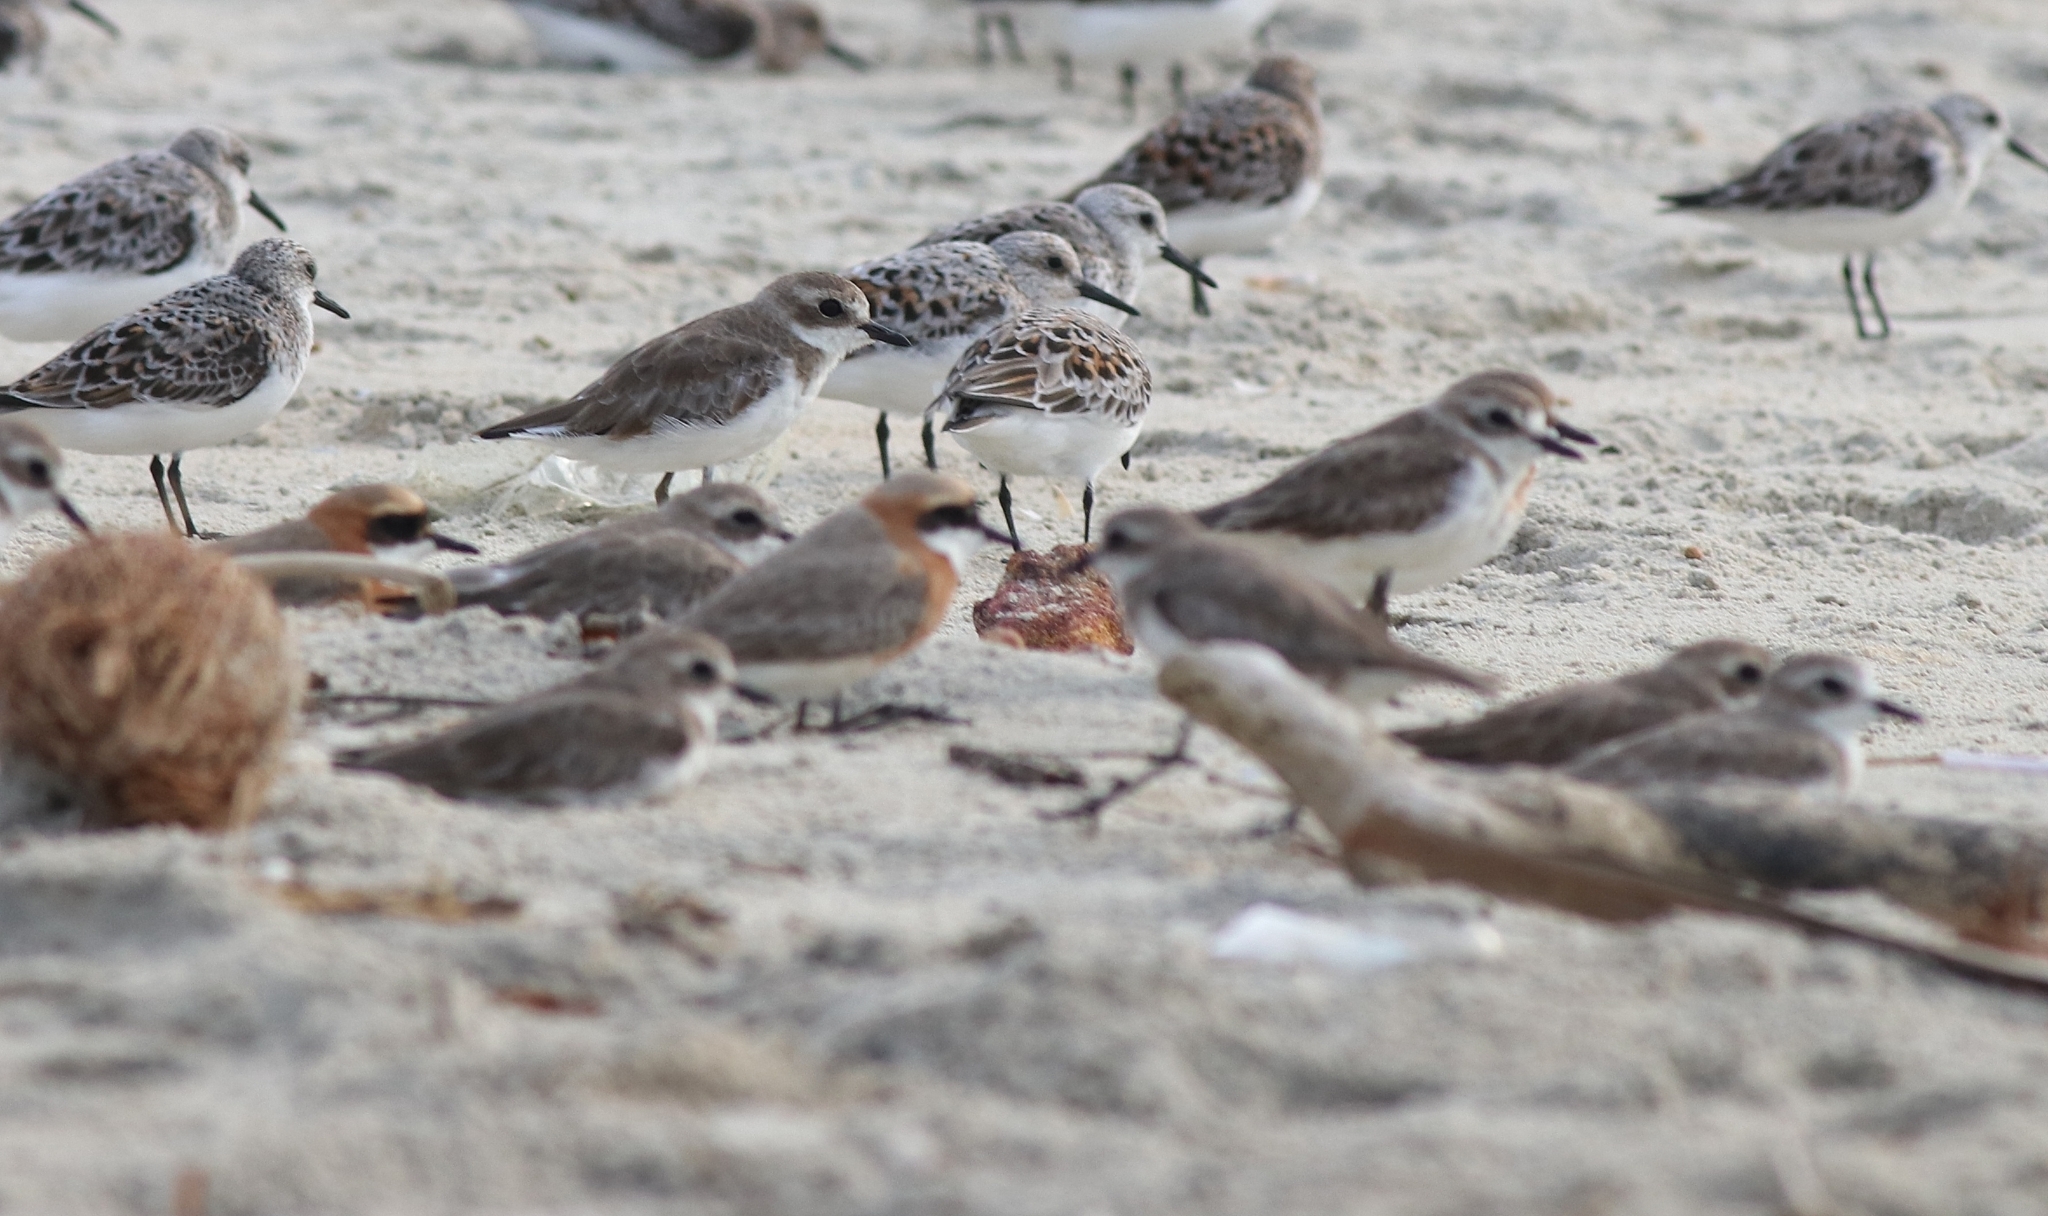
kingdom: Animalia
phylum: Chordata
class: Aves
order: Charadriiformes
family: Charadriidae
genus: Anarhynchus
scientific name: Anarhynchus
